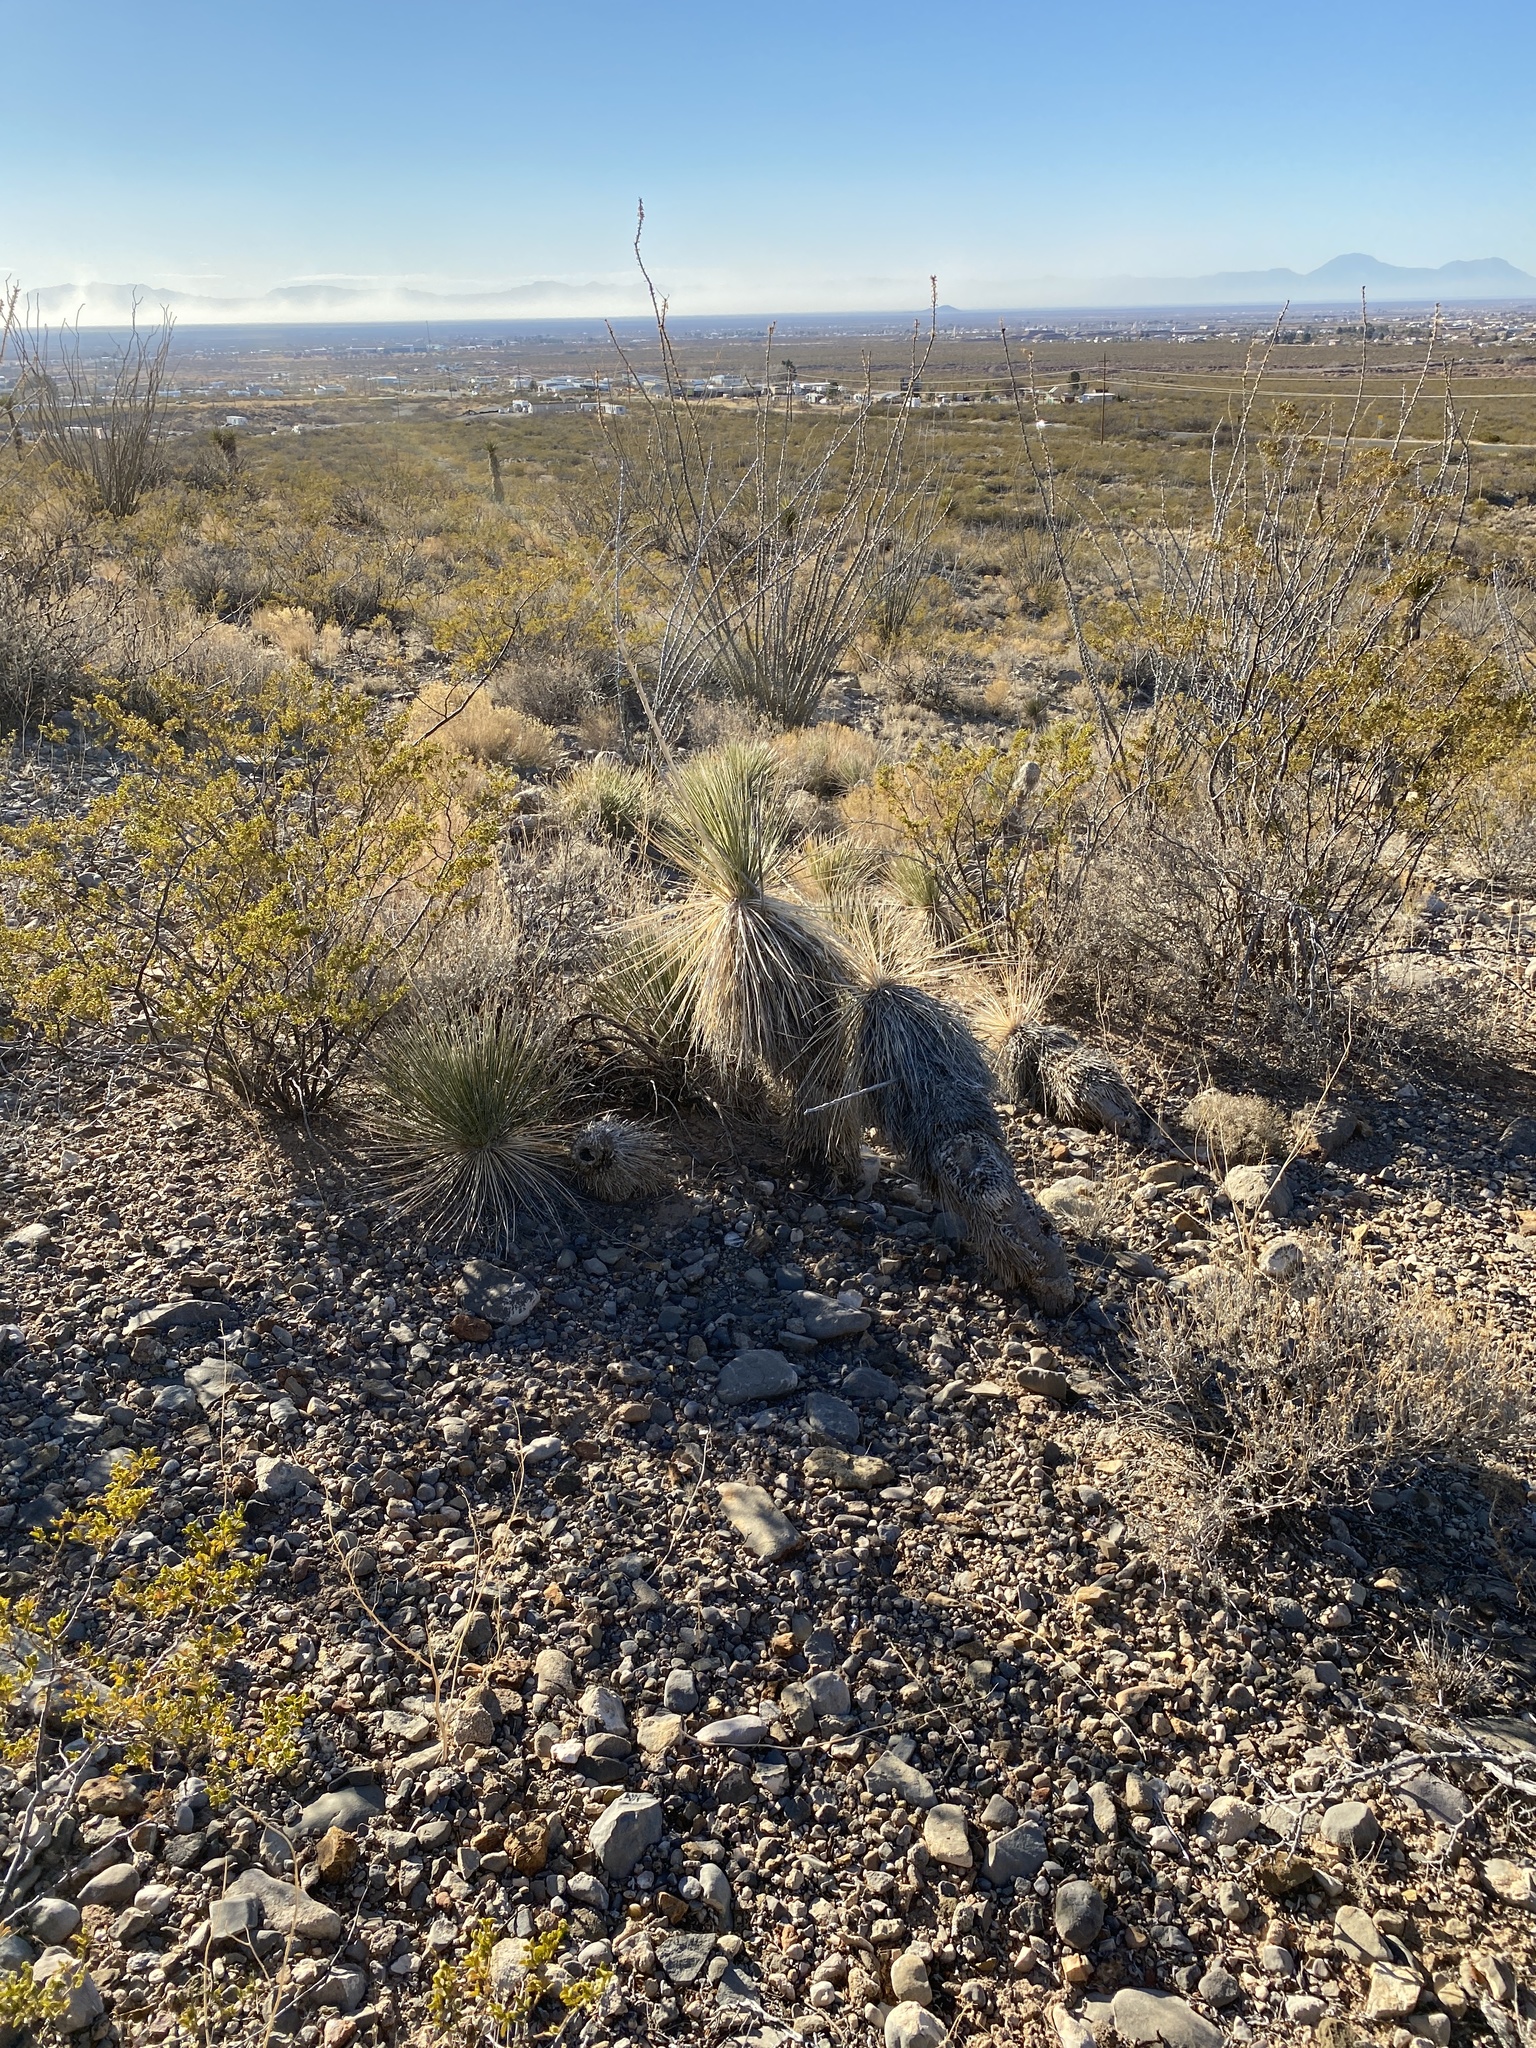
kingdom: Plantae
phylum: Tracheophyta
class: Liliopsida
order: Asparagales
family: Asparagaceae
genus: Yucca
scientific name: Yucca elata
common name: Palmella
